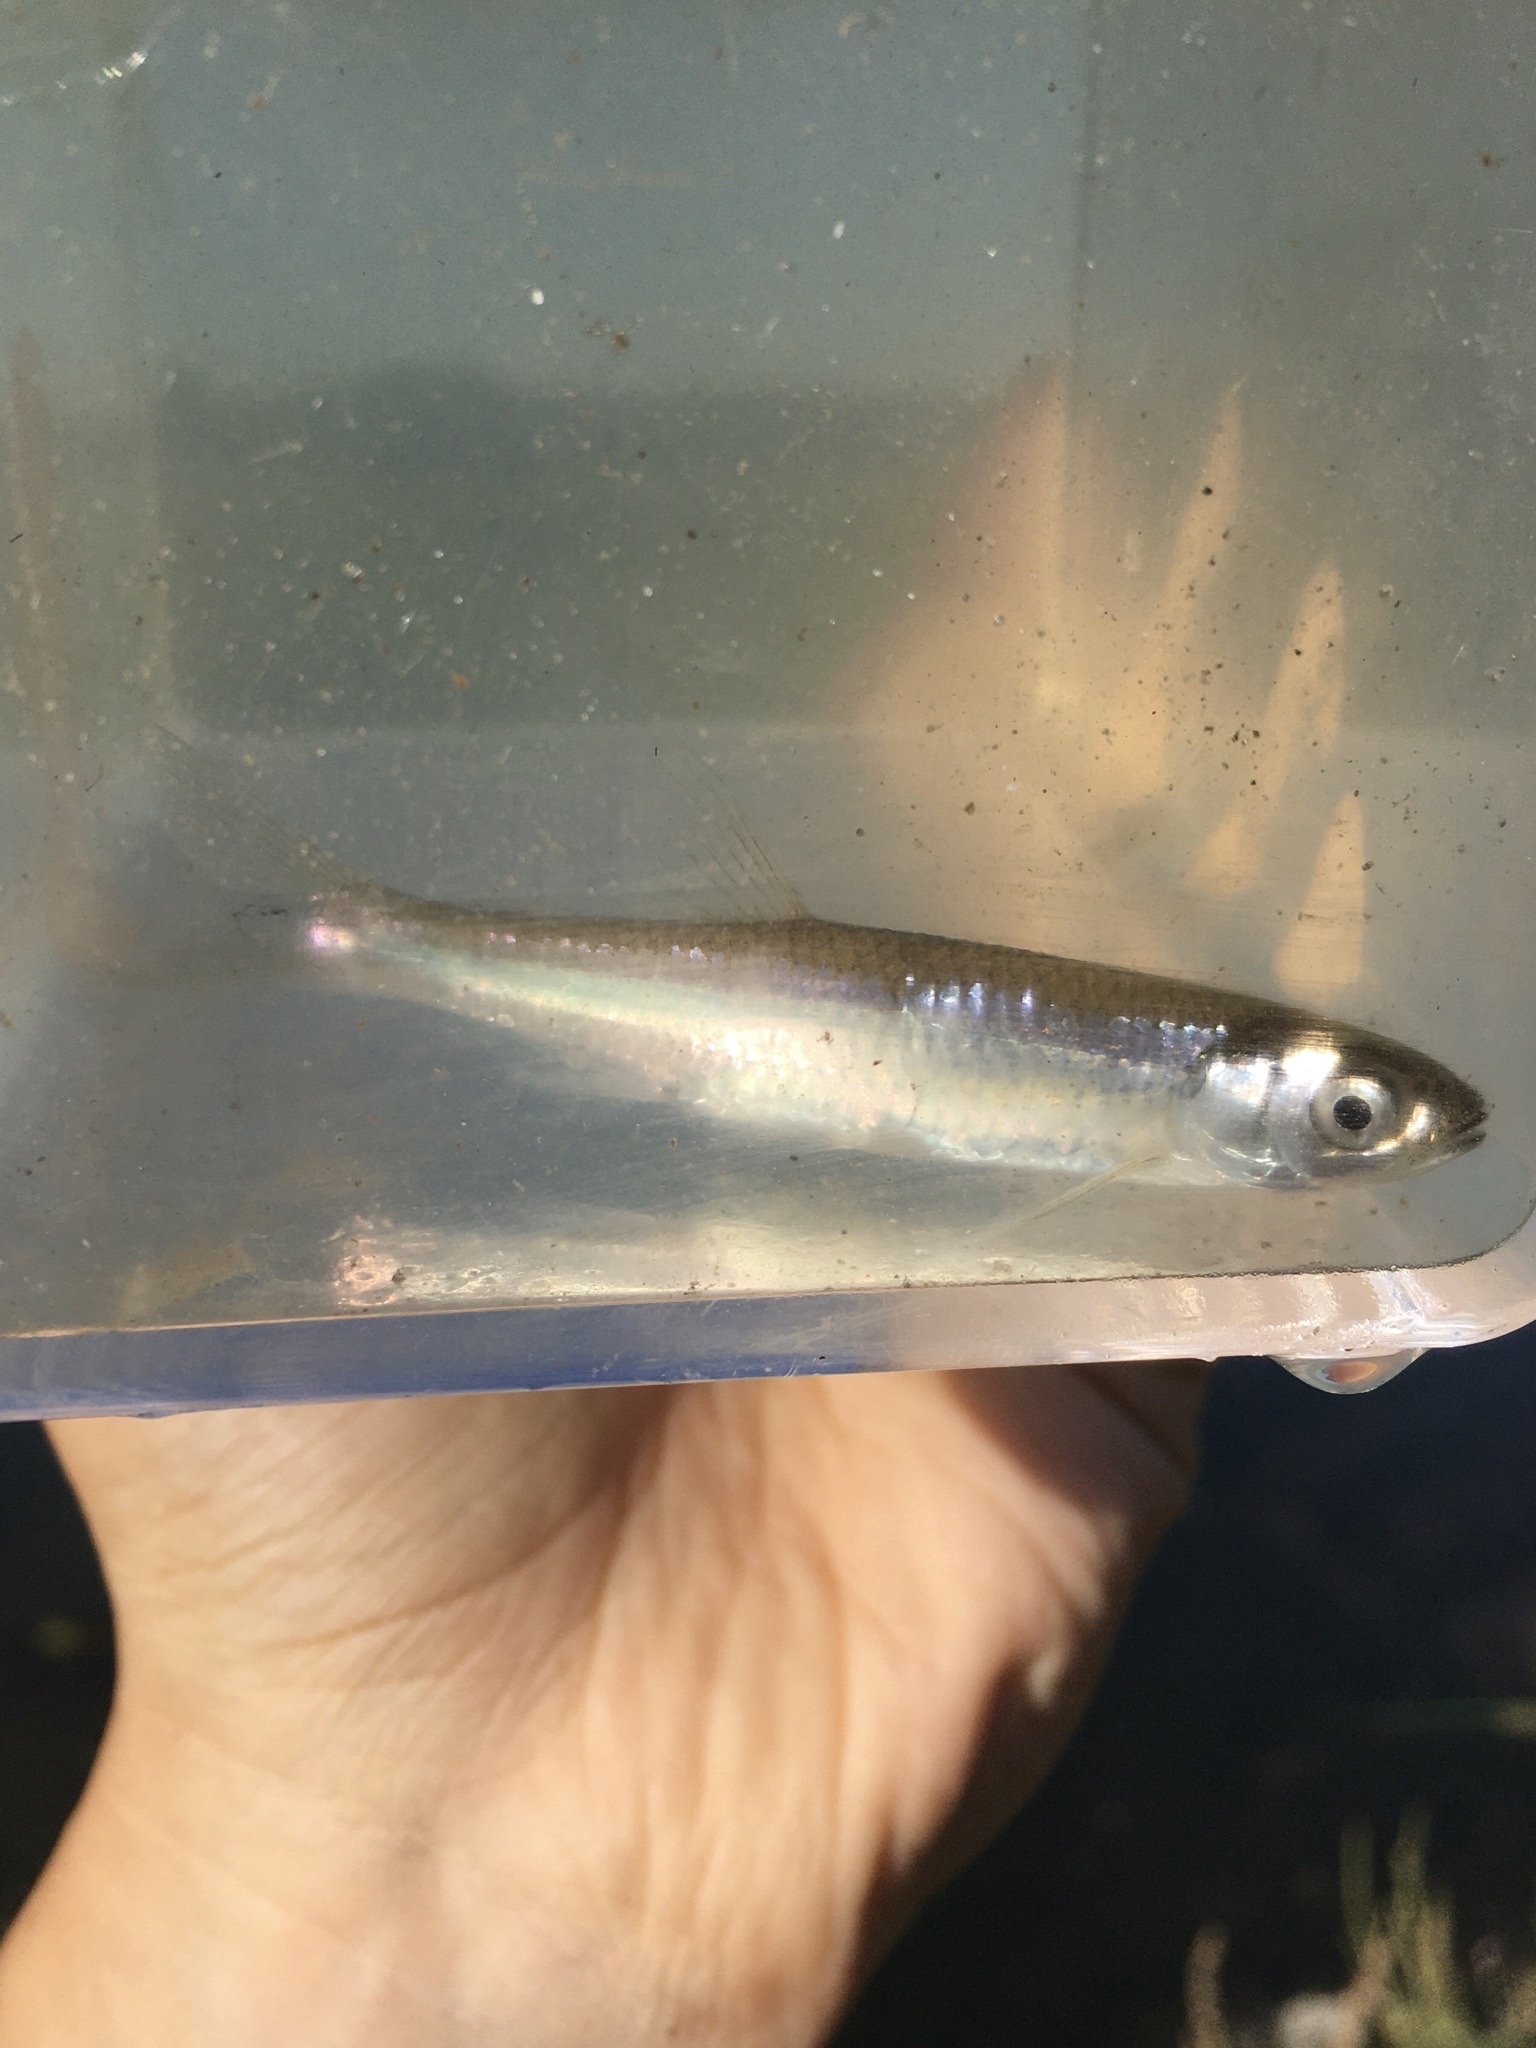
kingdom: Animalia
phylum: Chordata
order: Cypriniformes
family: Cyprinidae
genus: Notropis
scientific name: Notropis atherinoides
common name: Emerald shiner
